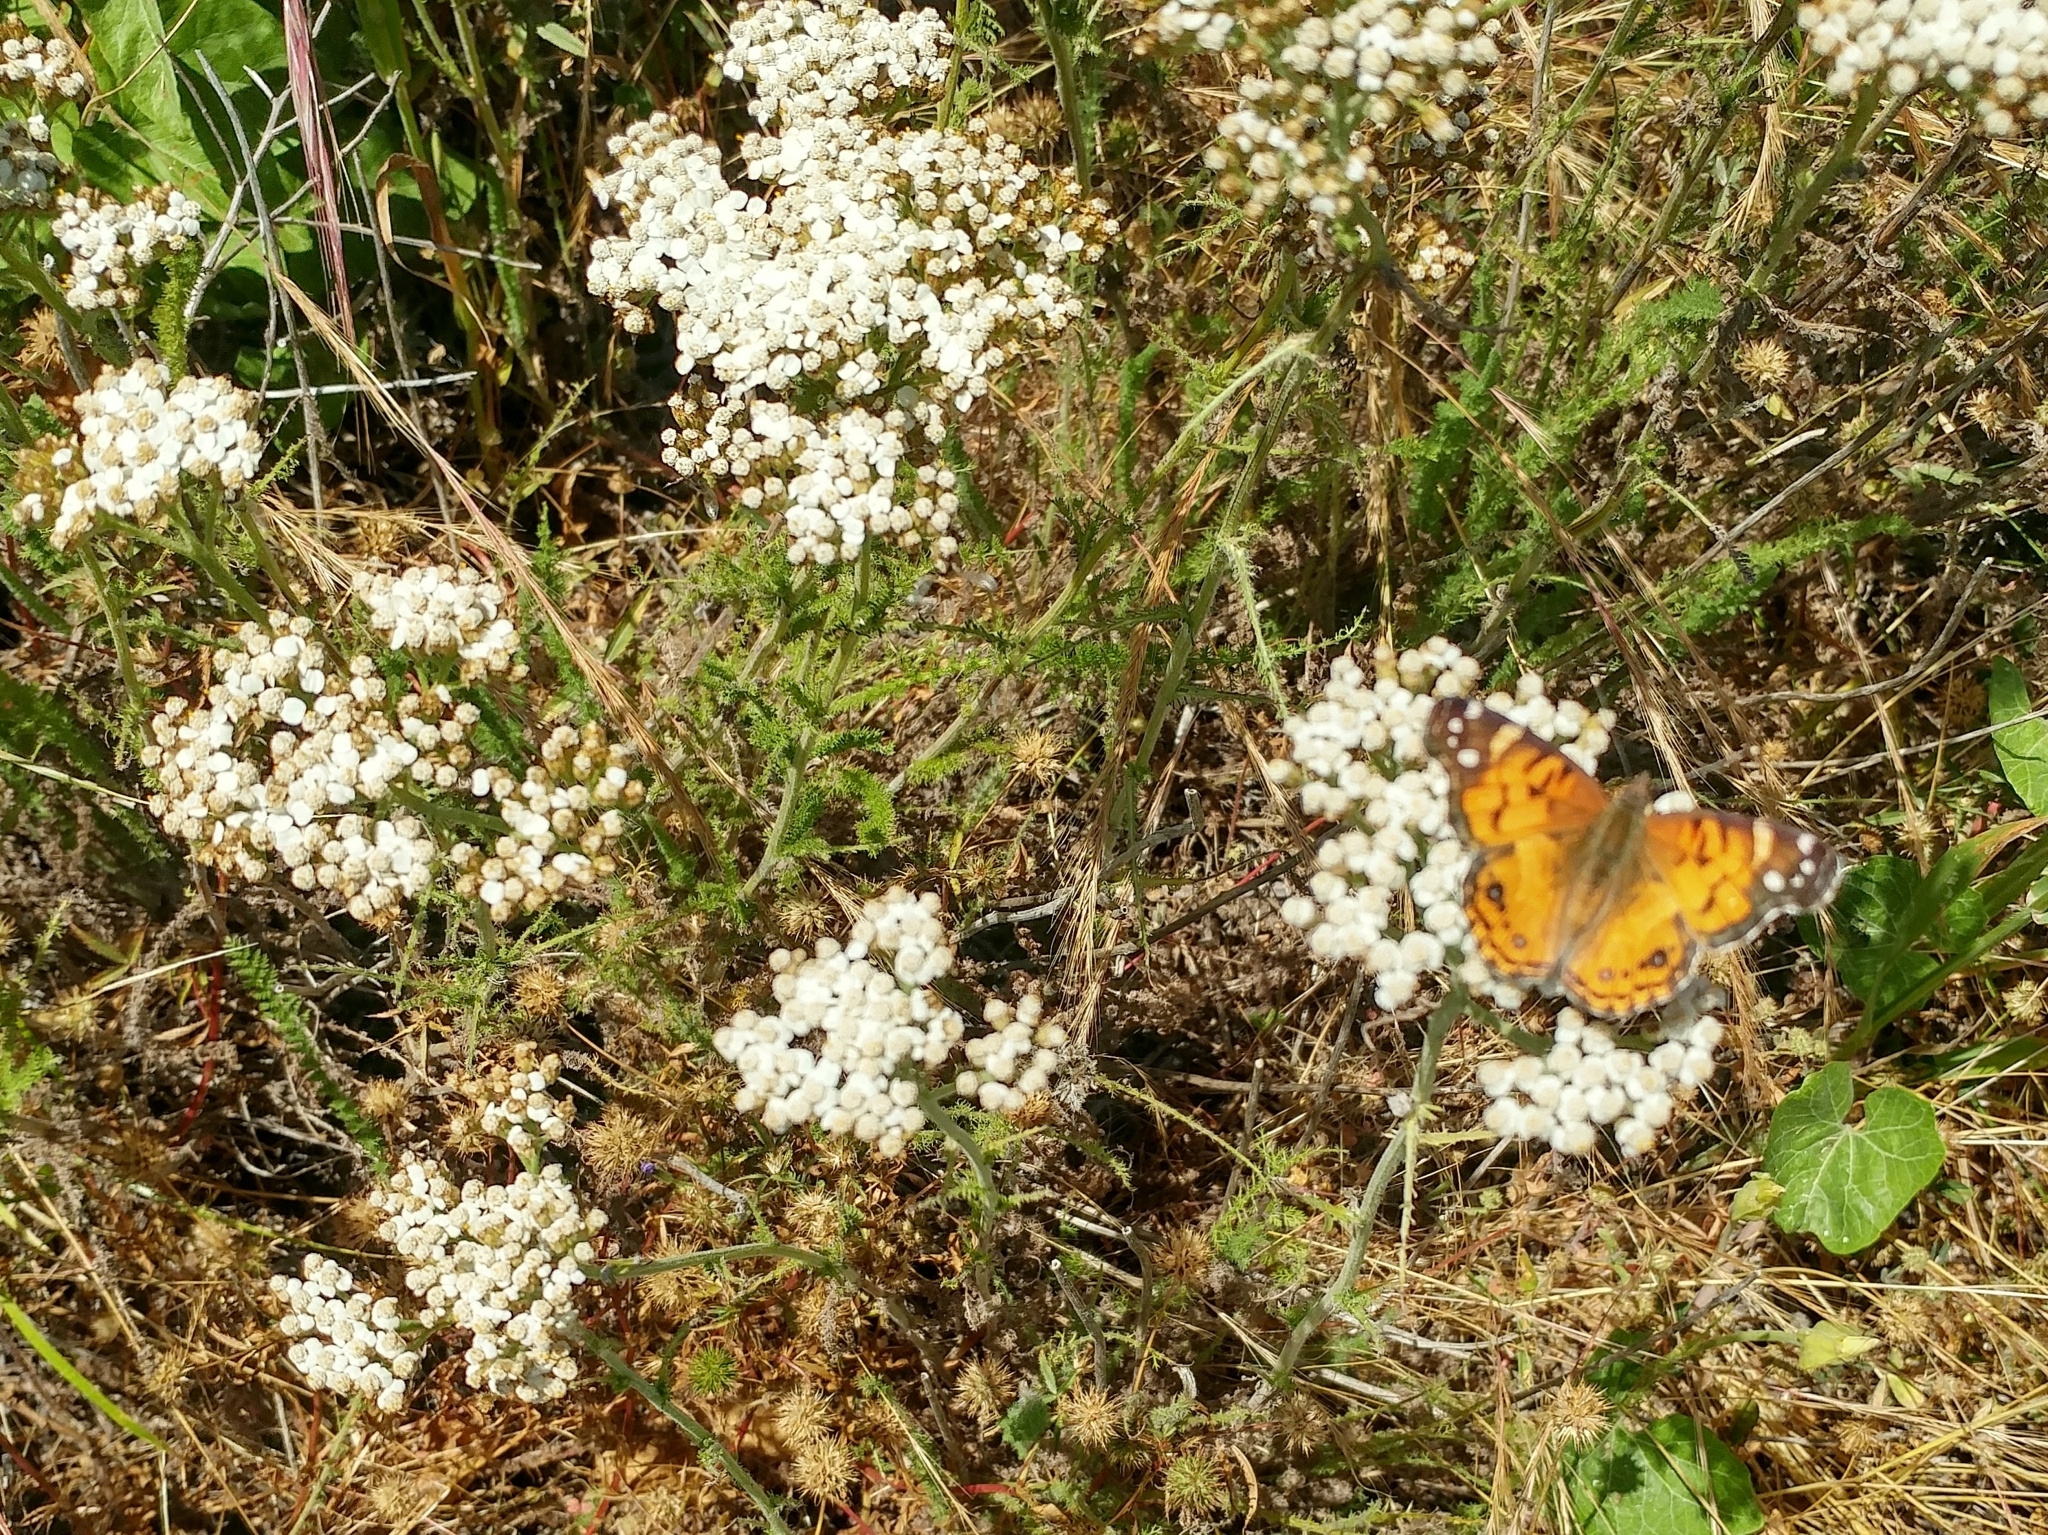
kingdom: Animalia
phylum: Arthropoda
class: Insecta
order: Lepidoptera
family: Nymphalidae
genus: Vanessa
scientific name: Vanessa virginiensis
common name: American lady
